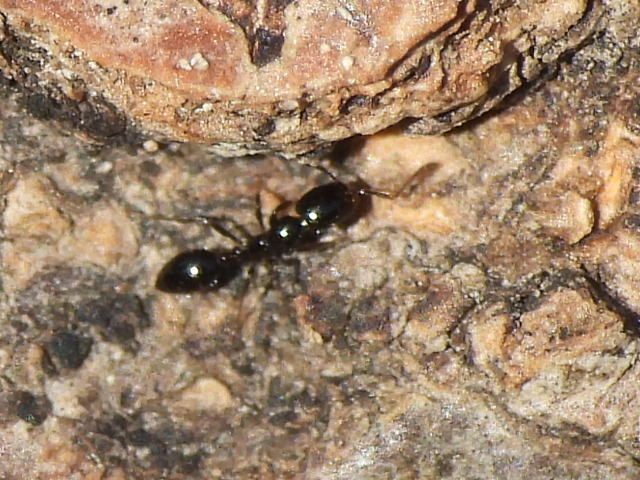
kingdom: Animalia
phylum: Arthropoda
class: Insecta
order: Hymenoptera
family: Formicidae
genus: Monomorium
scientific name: Monomorium
